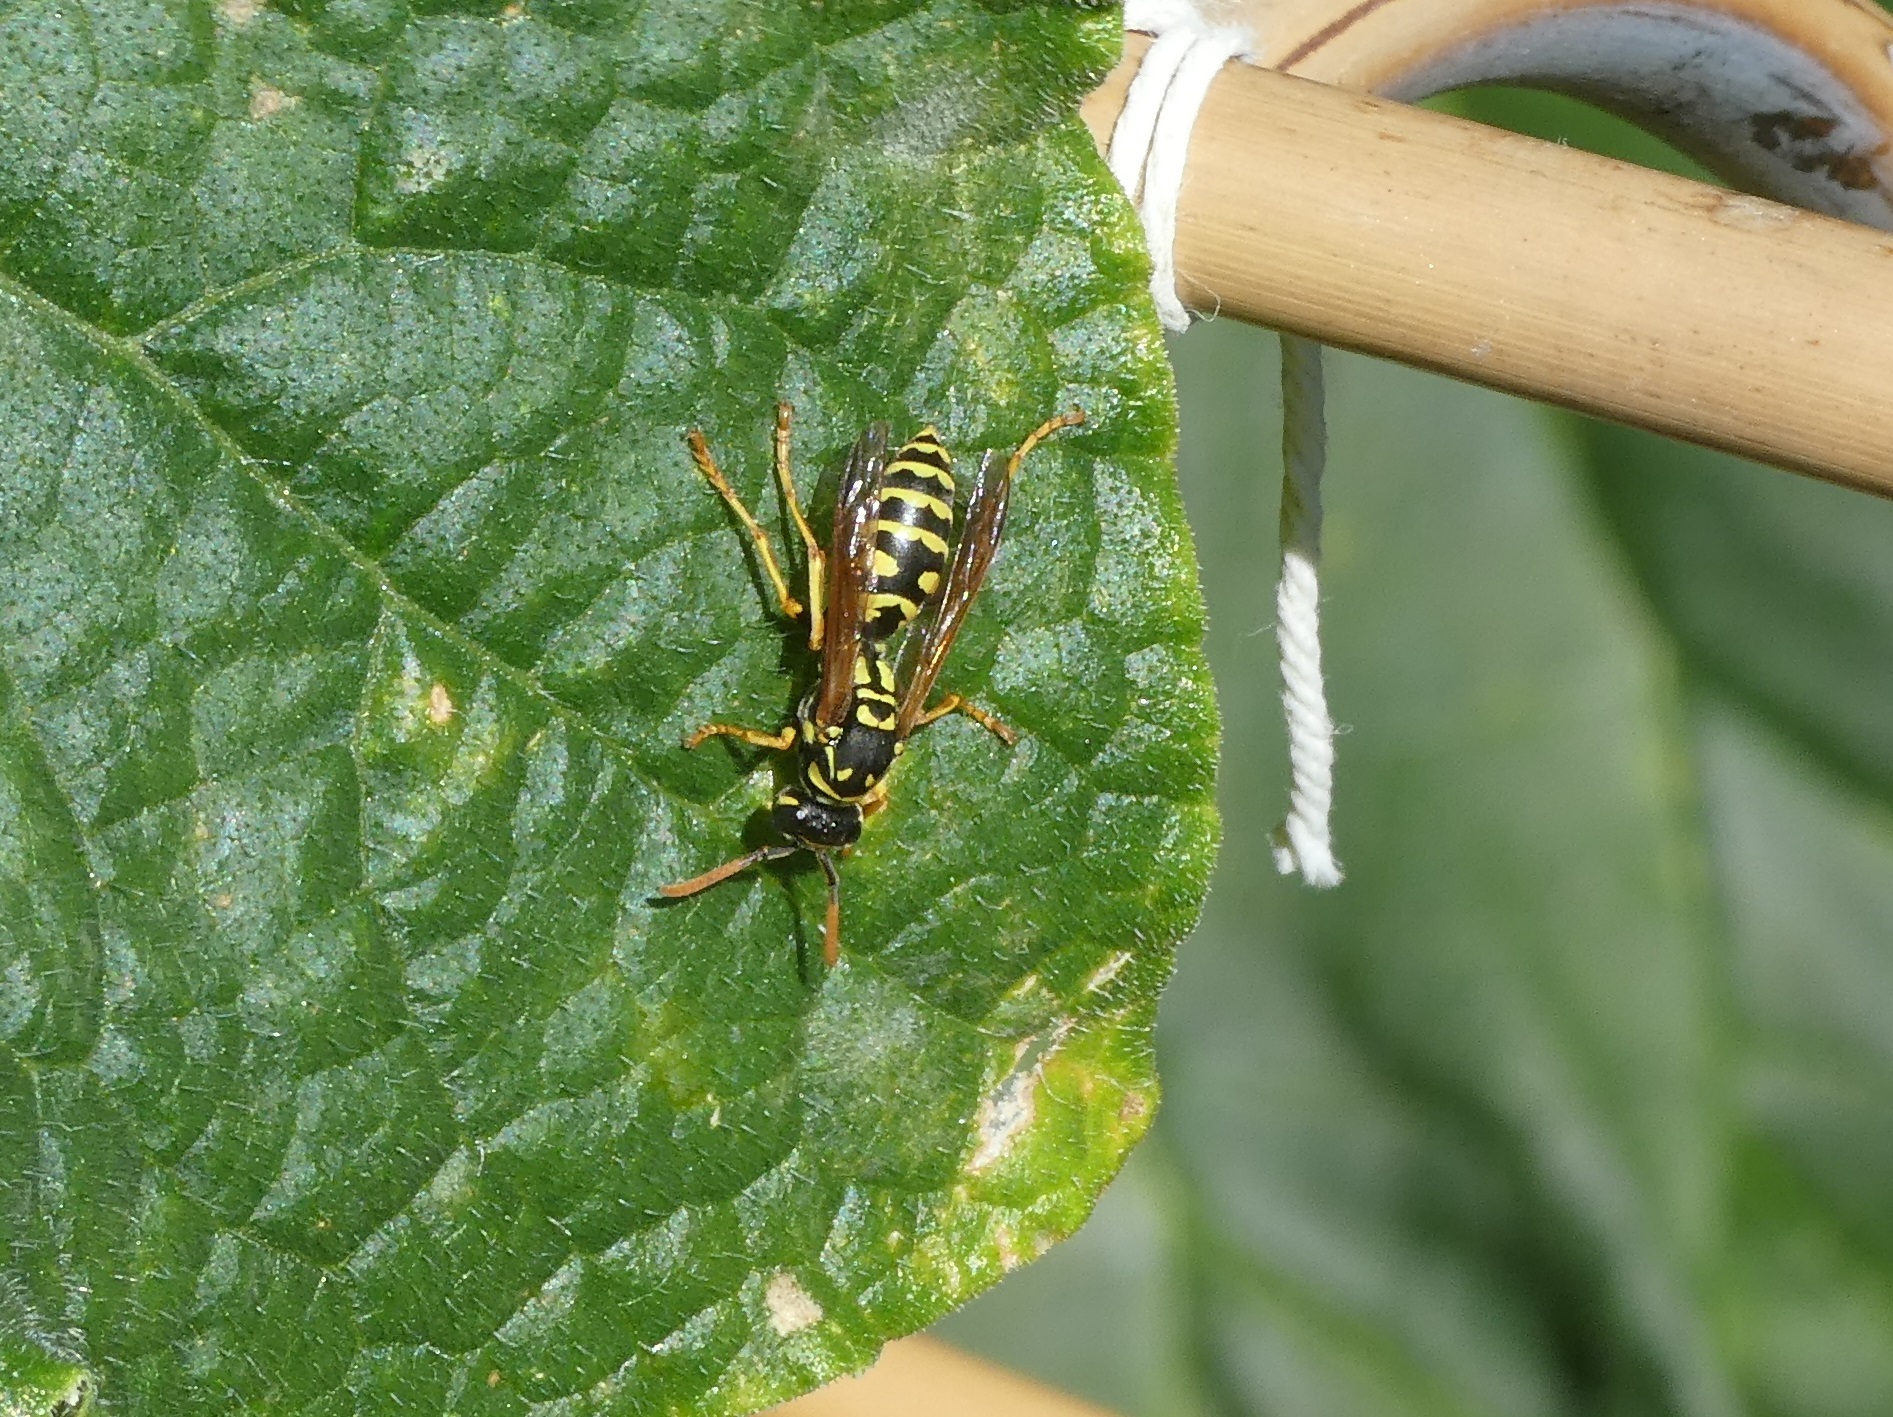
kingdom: Animalia
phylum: Arthropoda
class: Insecta
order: Hymenoptera
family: Eumenidae
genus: Polistes
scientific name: Polistes dominula
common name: Paper wasp
